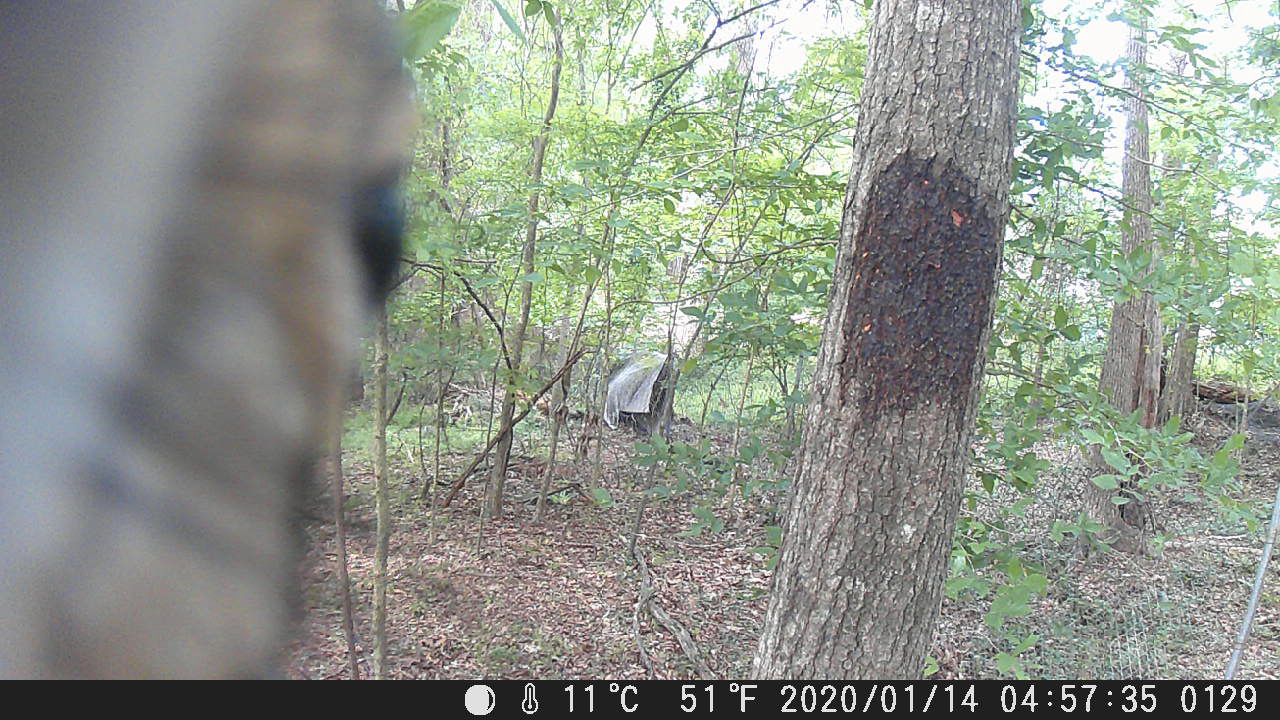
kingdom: Animalia
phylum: Chordata
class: Mammalia
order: Rodentia
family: Sciuridae
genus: Sciurus
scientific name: Sciurus carolinensis
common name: Eastern gray squirrel
